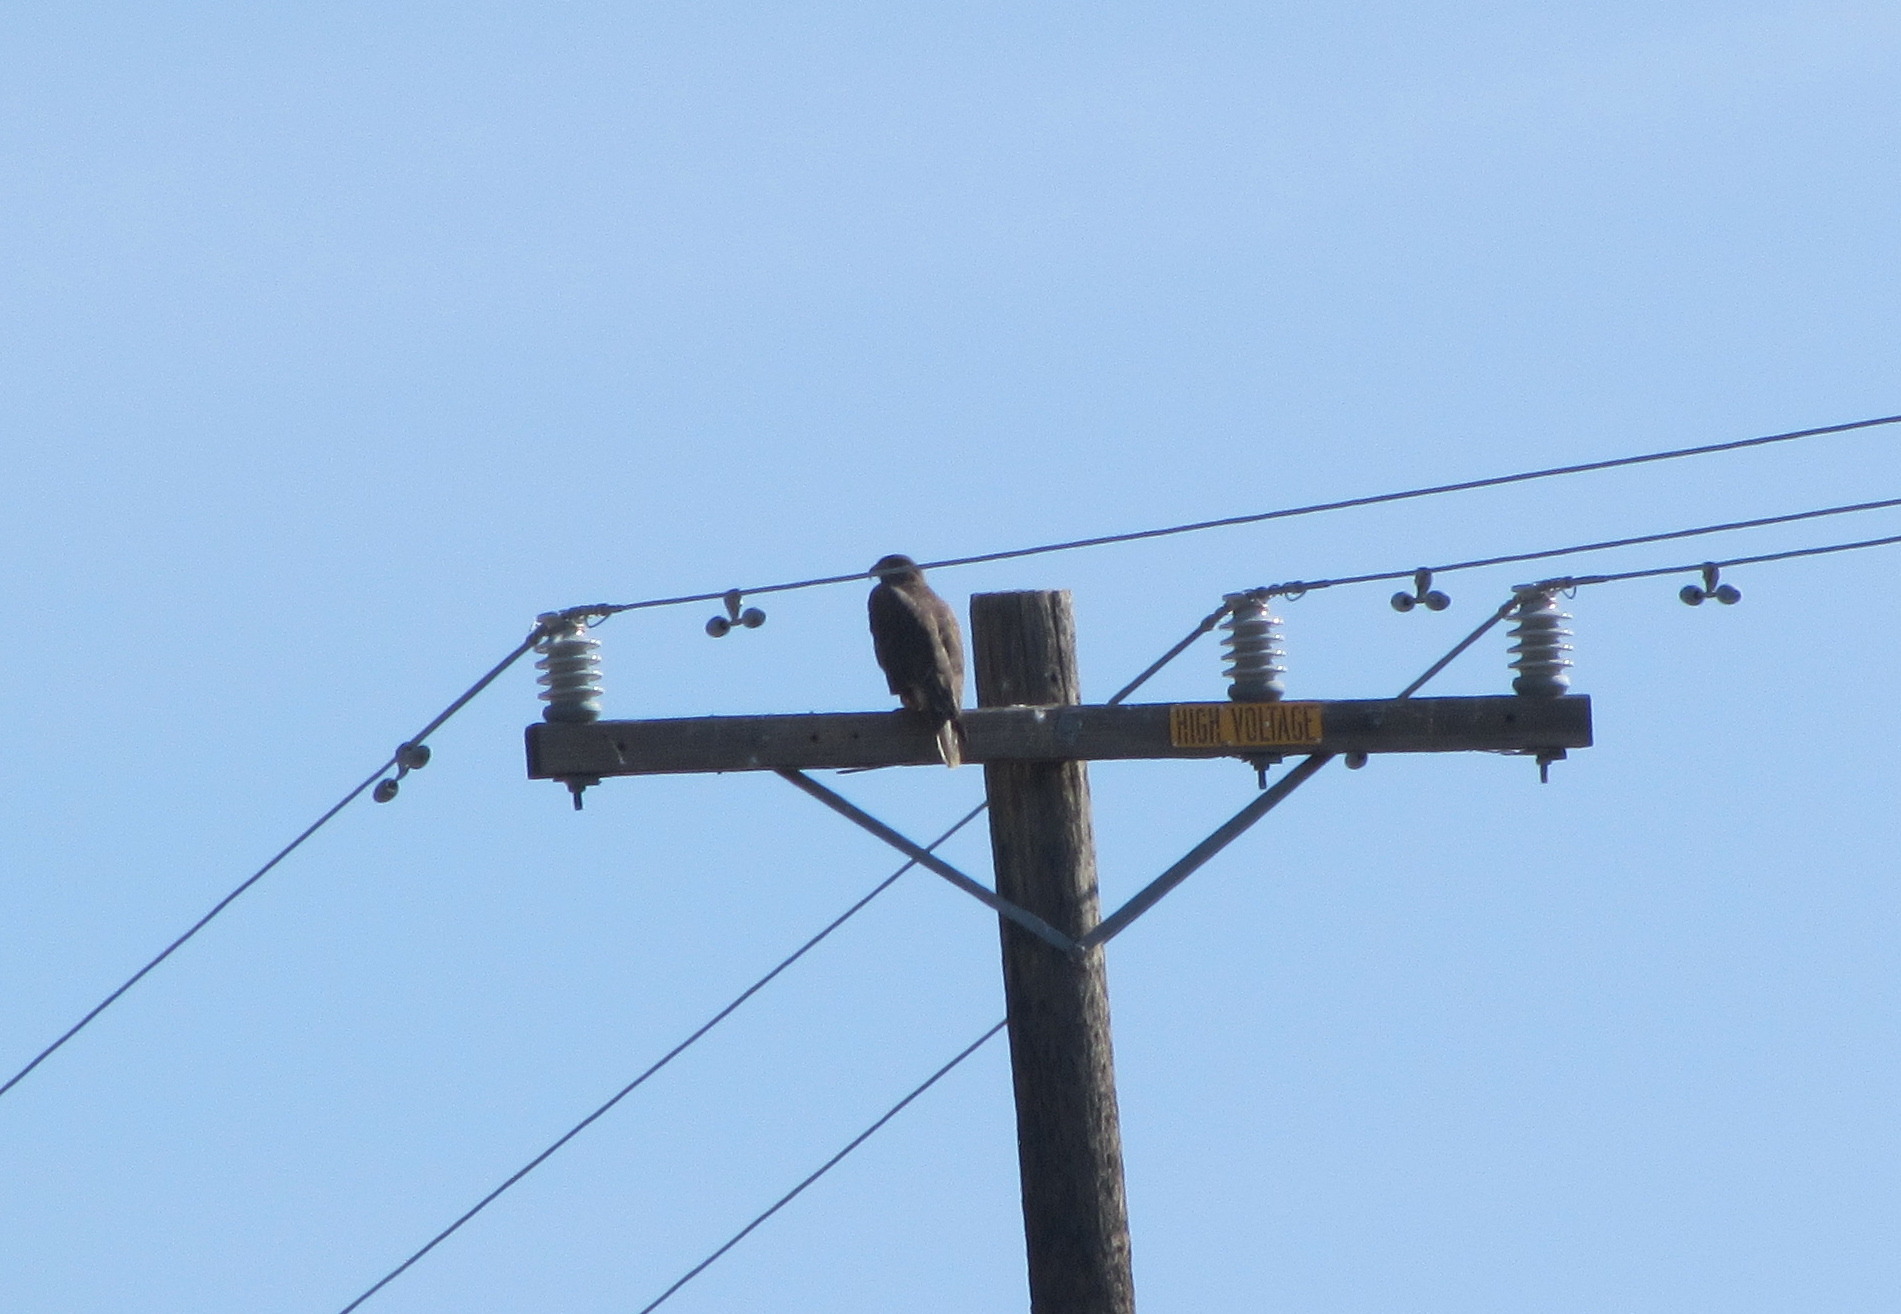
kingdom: Animalia
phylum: Chordata
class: Aves
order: Accipitriformes
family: Accipitridae
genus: Buteo
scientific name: Buteo regalis
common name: Ferruginous hawk
